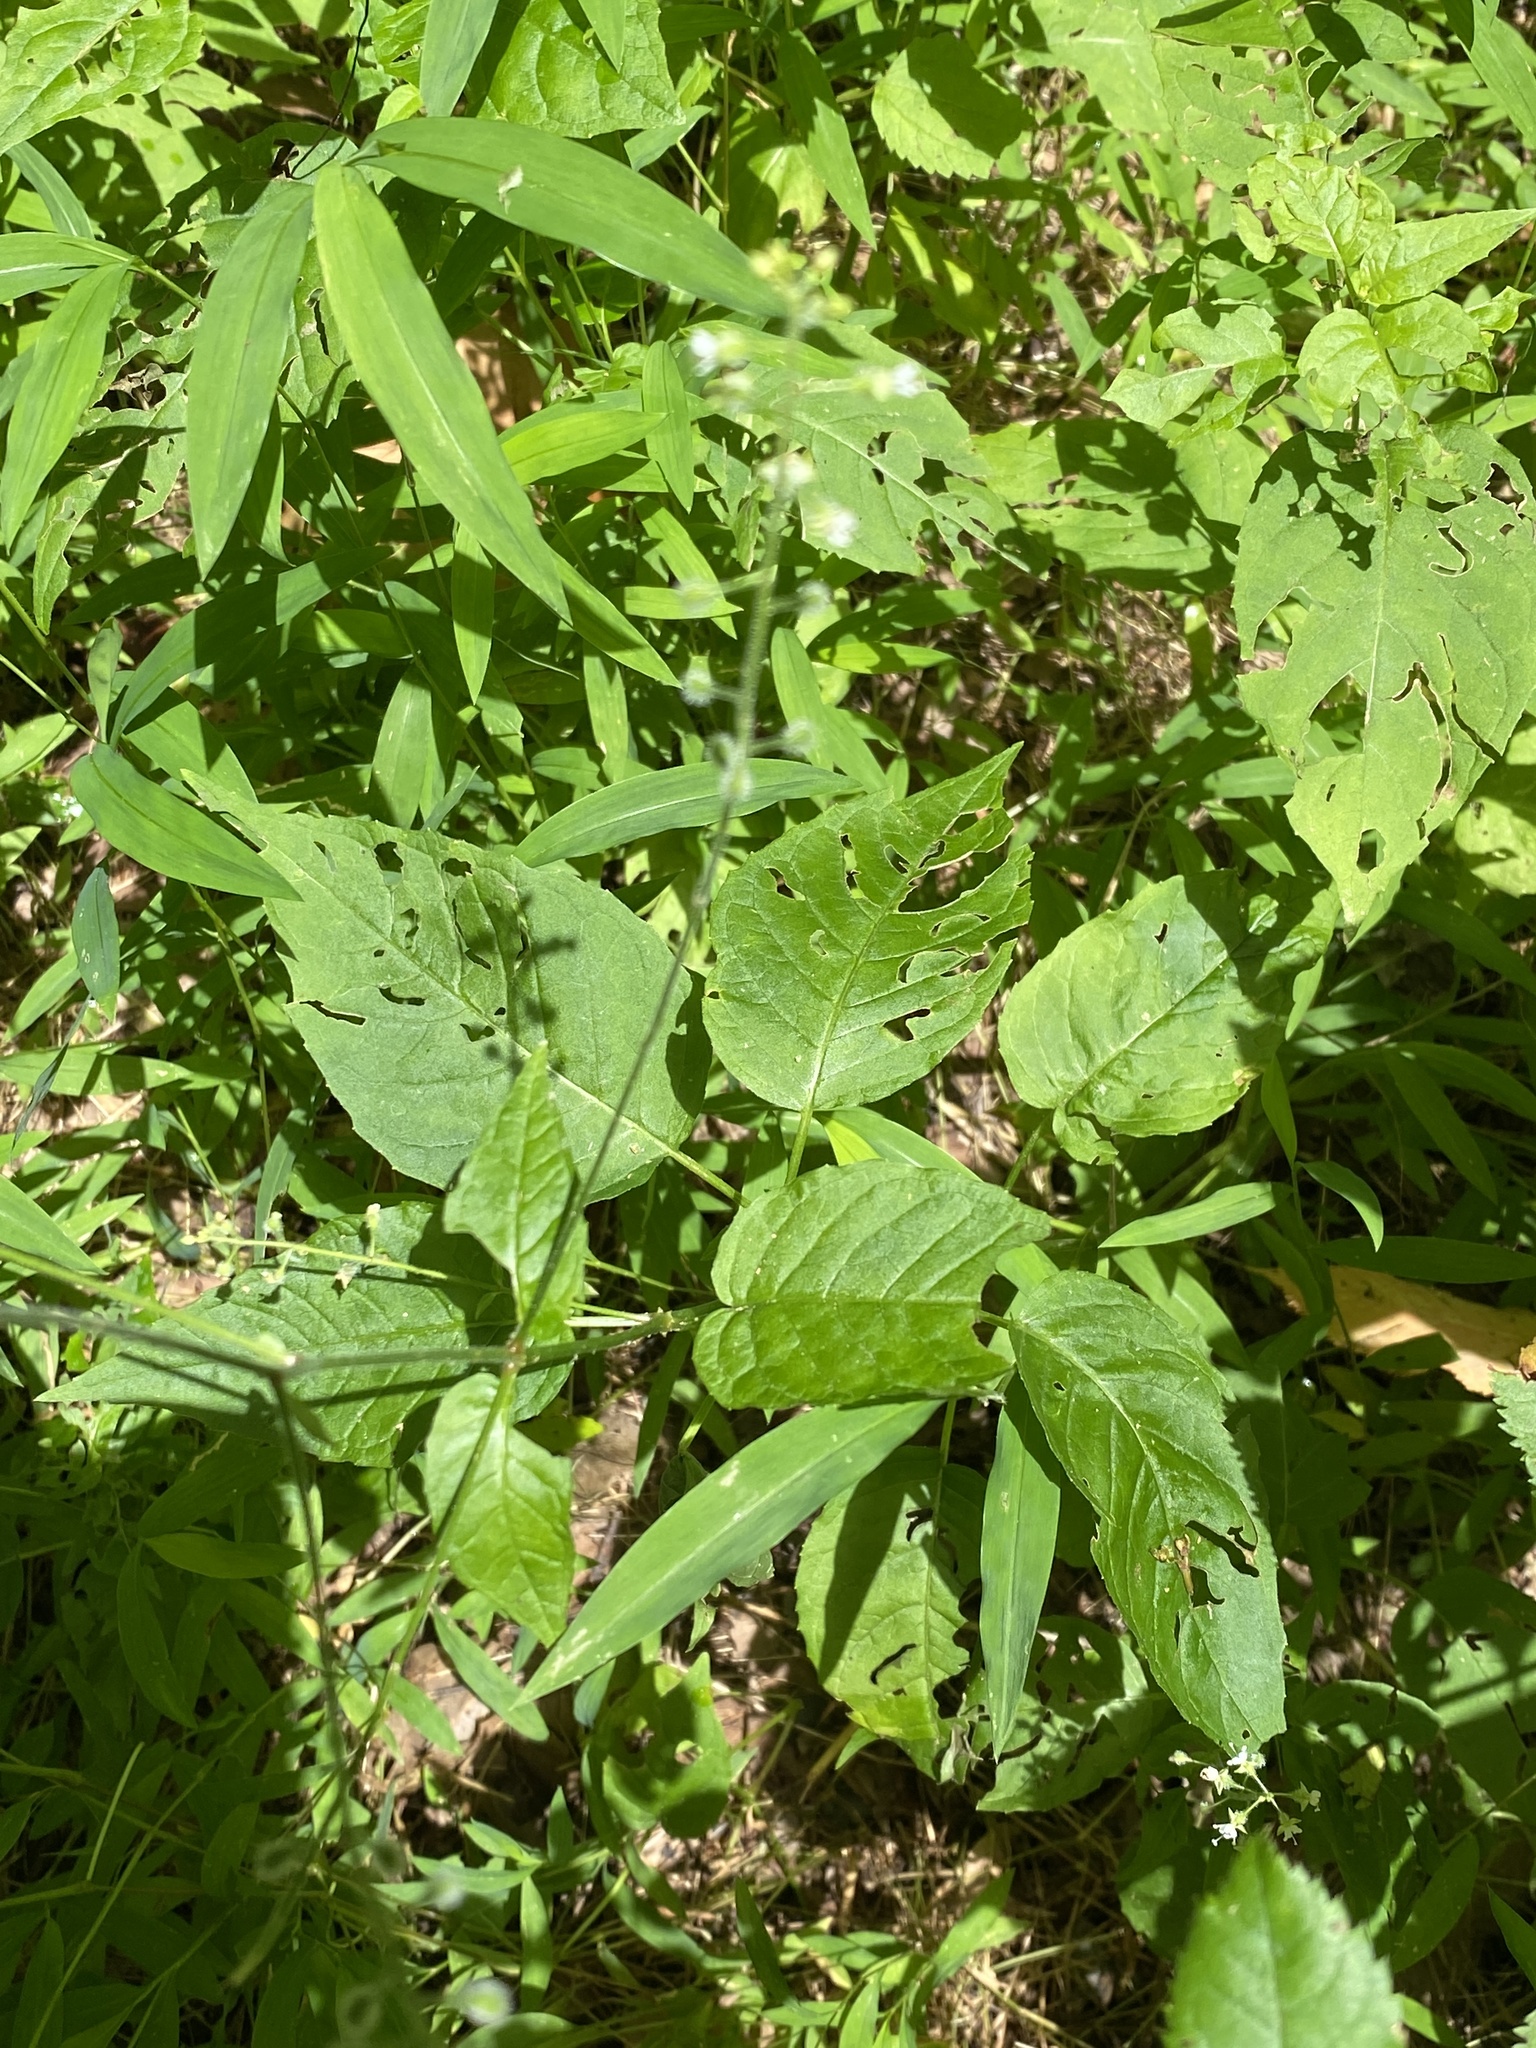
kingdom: Plantae
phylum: Tracheophyta
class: Magnoliopsida
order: Myrtales
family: Onagraceae
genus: Circaea
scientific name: Circaea canadensis
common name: Broad-leaved enchanter's nightshade
